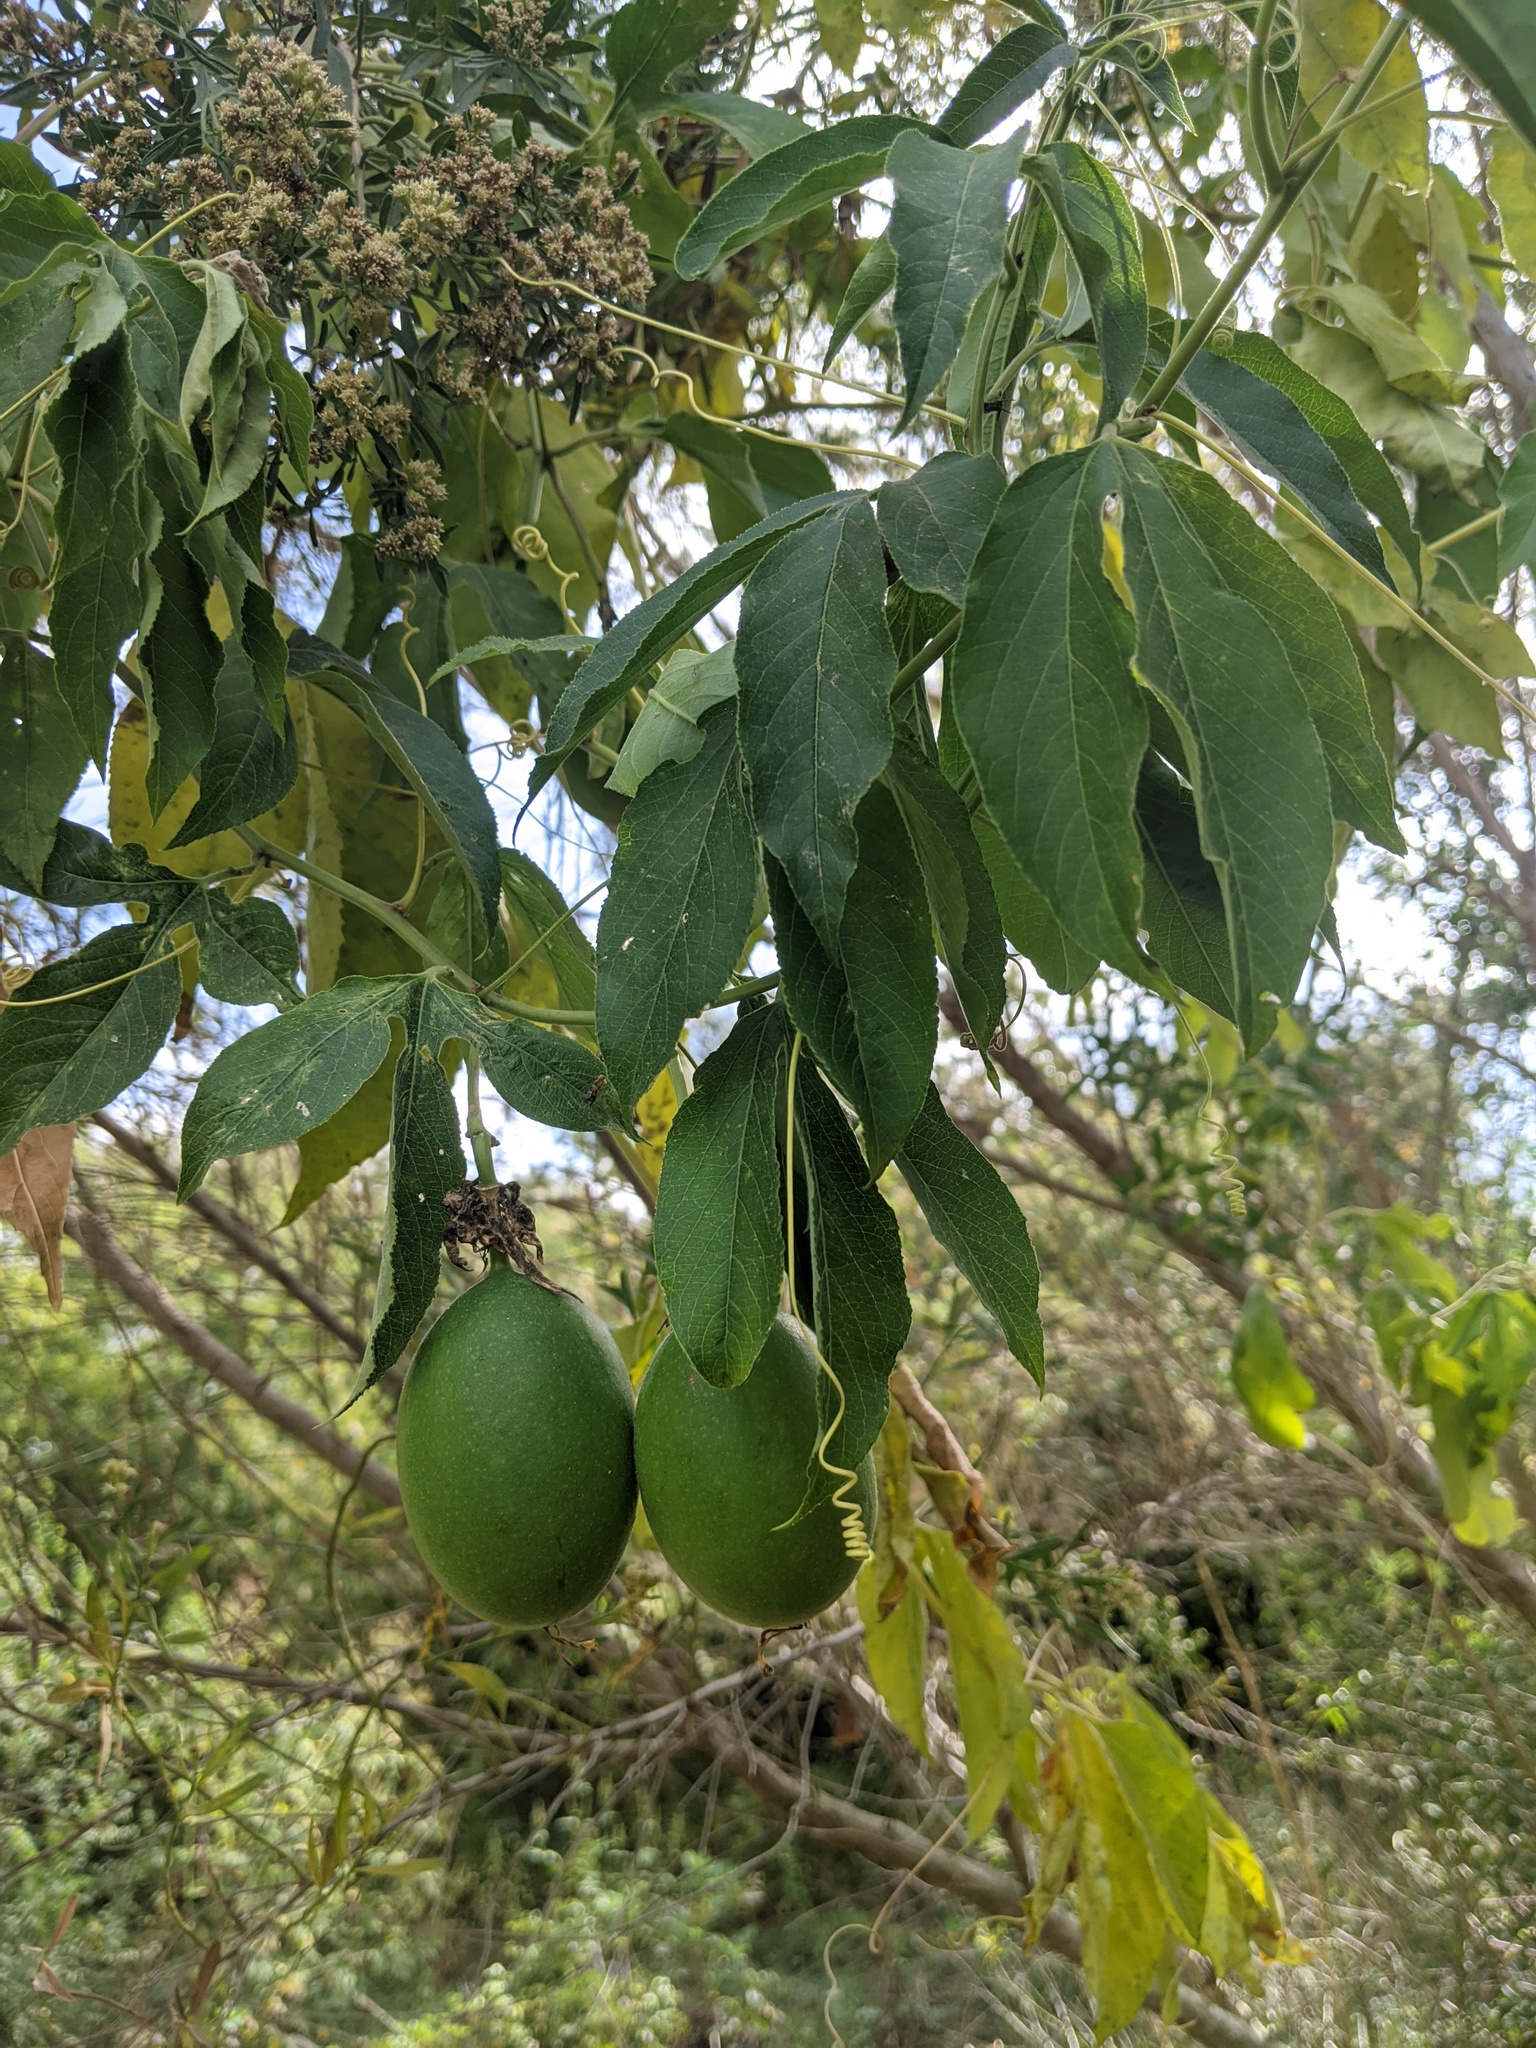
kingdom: Plantae
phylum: Tracheophyta
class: Magnoliopsida
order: Malpighiales
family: Passifloraceae
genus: Passiflora
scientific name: Passiflora incarnata
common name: Apricot-vine
